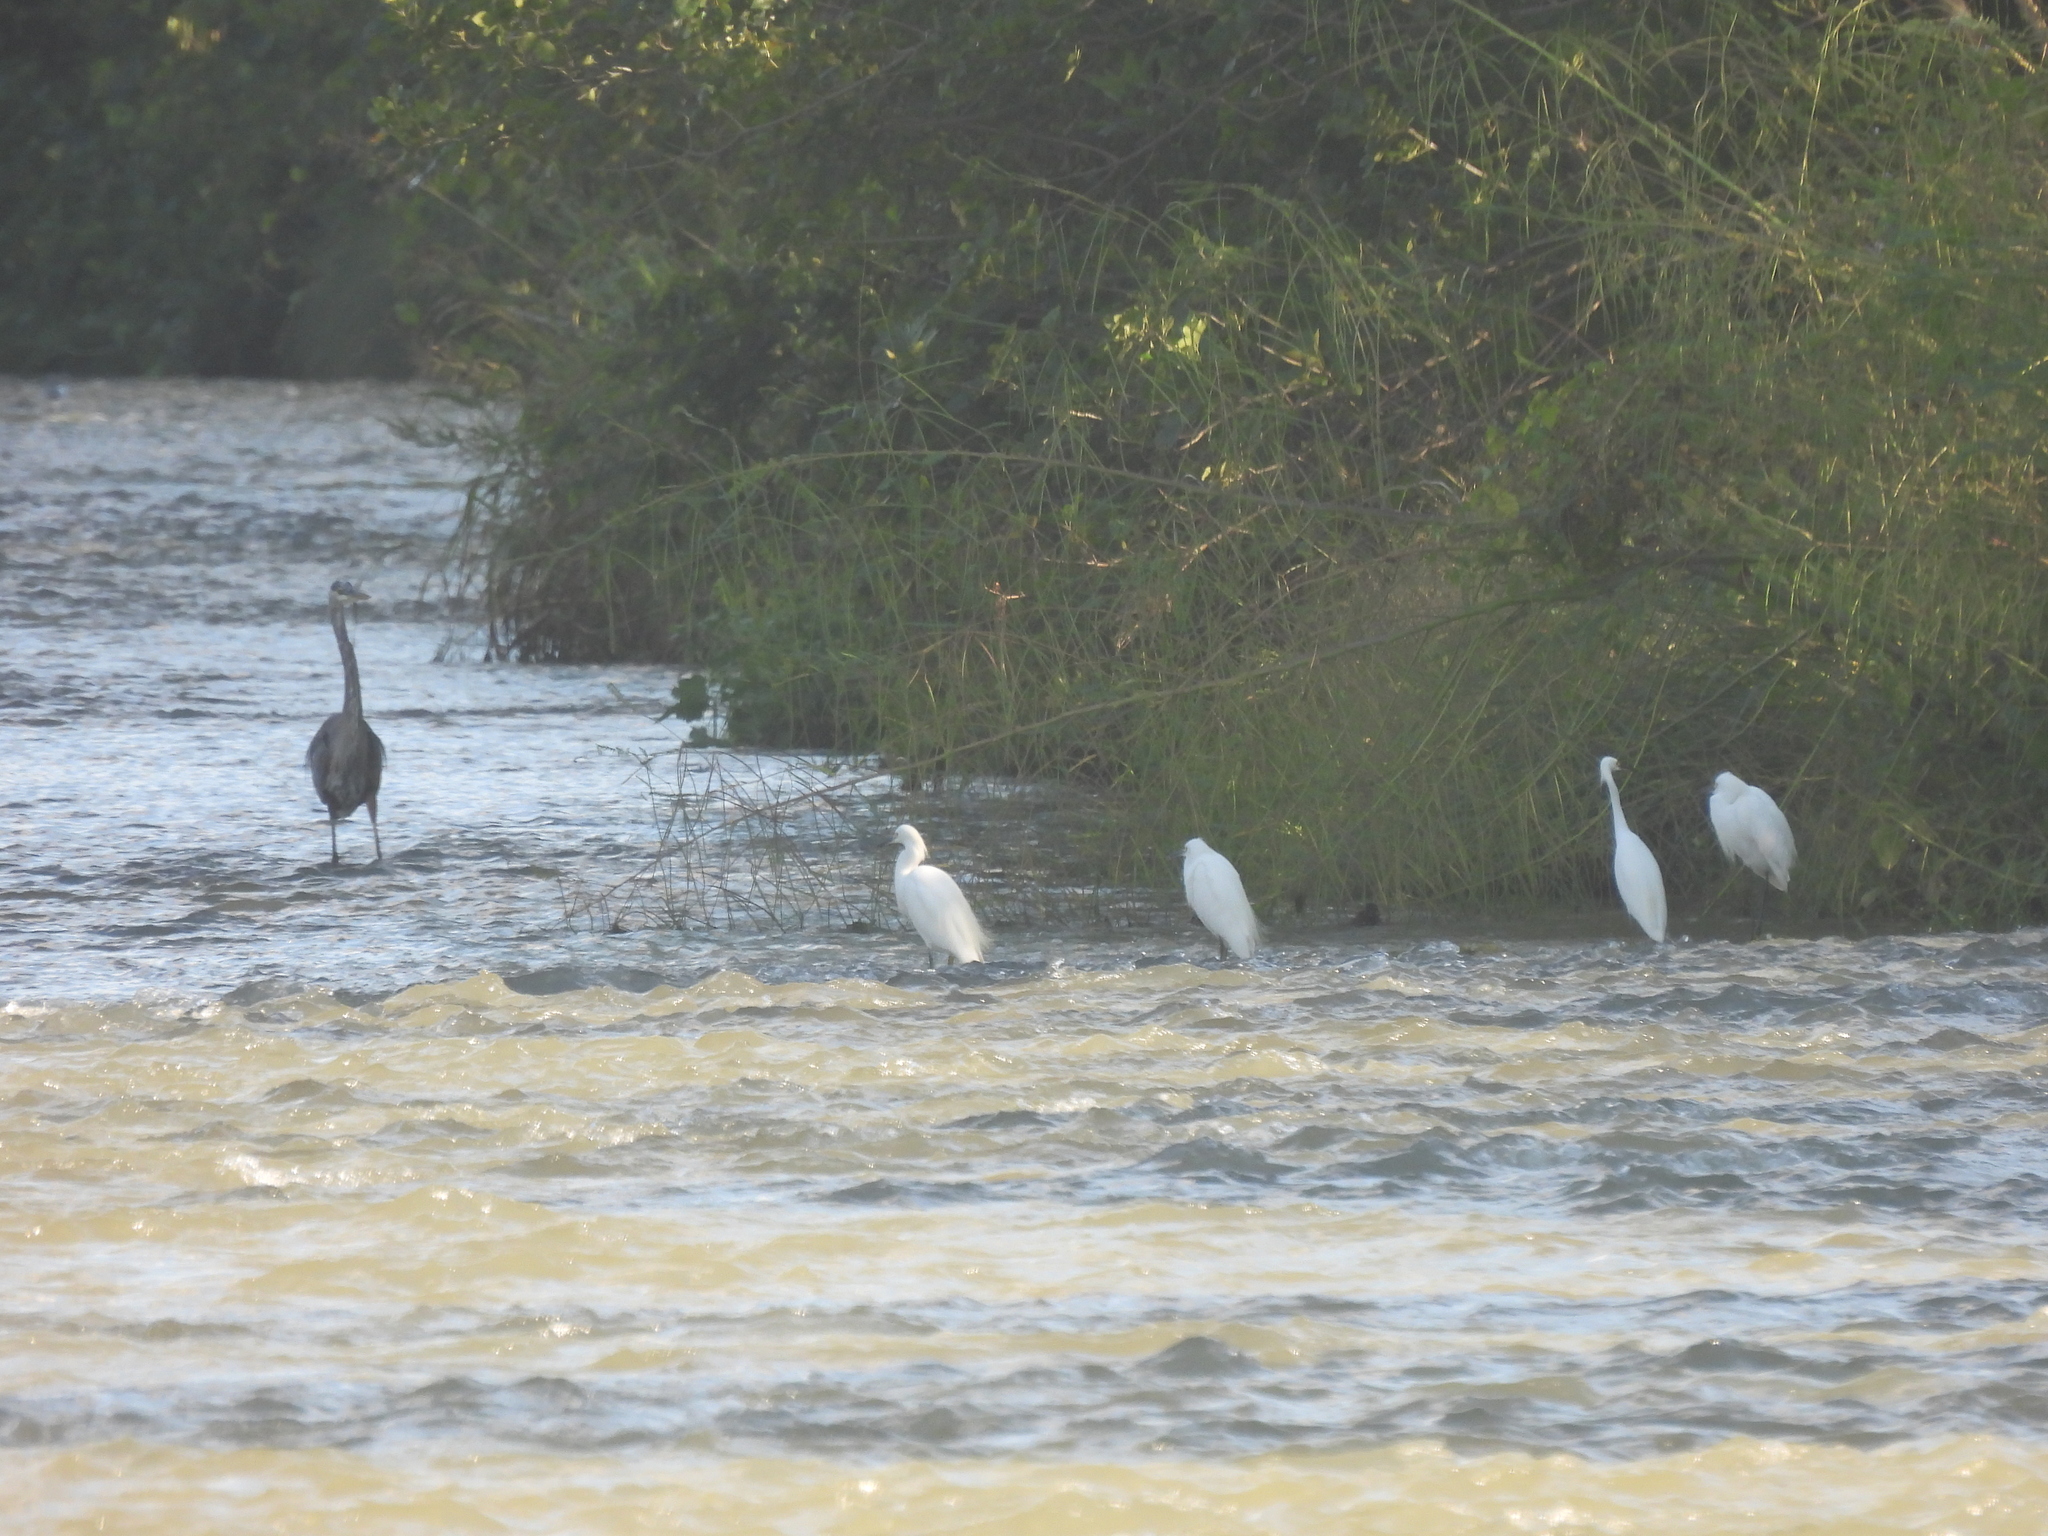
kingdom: Animalia
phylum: Chordata
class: Aves
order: Pelecaniformes
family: Ardeidae
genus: Egretta
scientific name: Egretta thula
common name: Snowy egret
